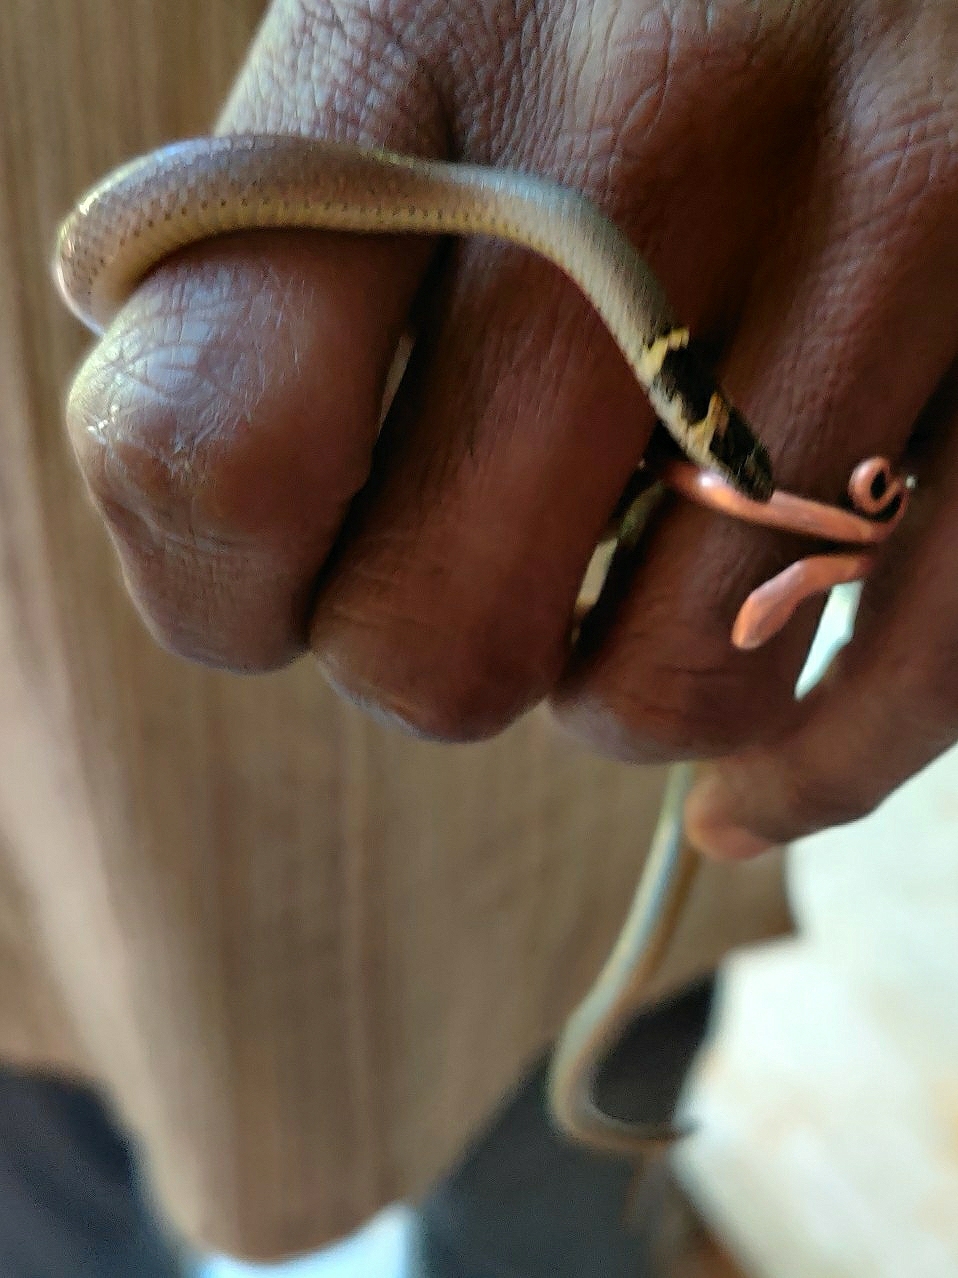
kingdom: Animalia
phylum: Chordata
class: Squamata
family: Colubridae
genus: Sibynophis
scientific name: Sibynophis subpunctatus
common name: Black-headed snake
